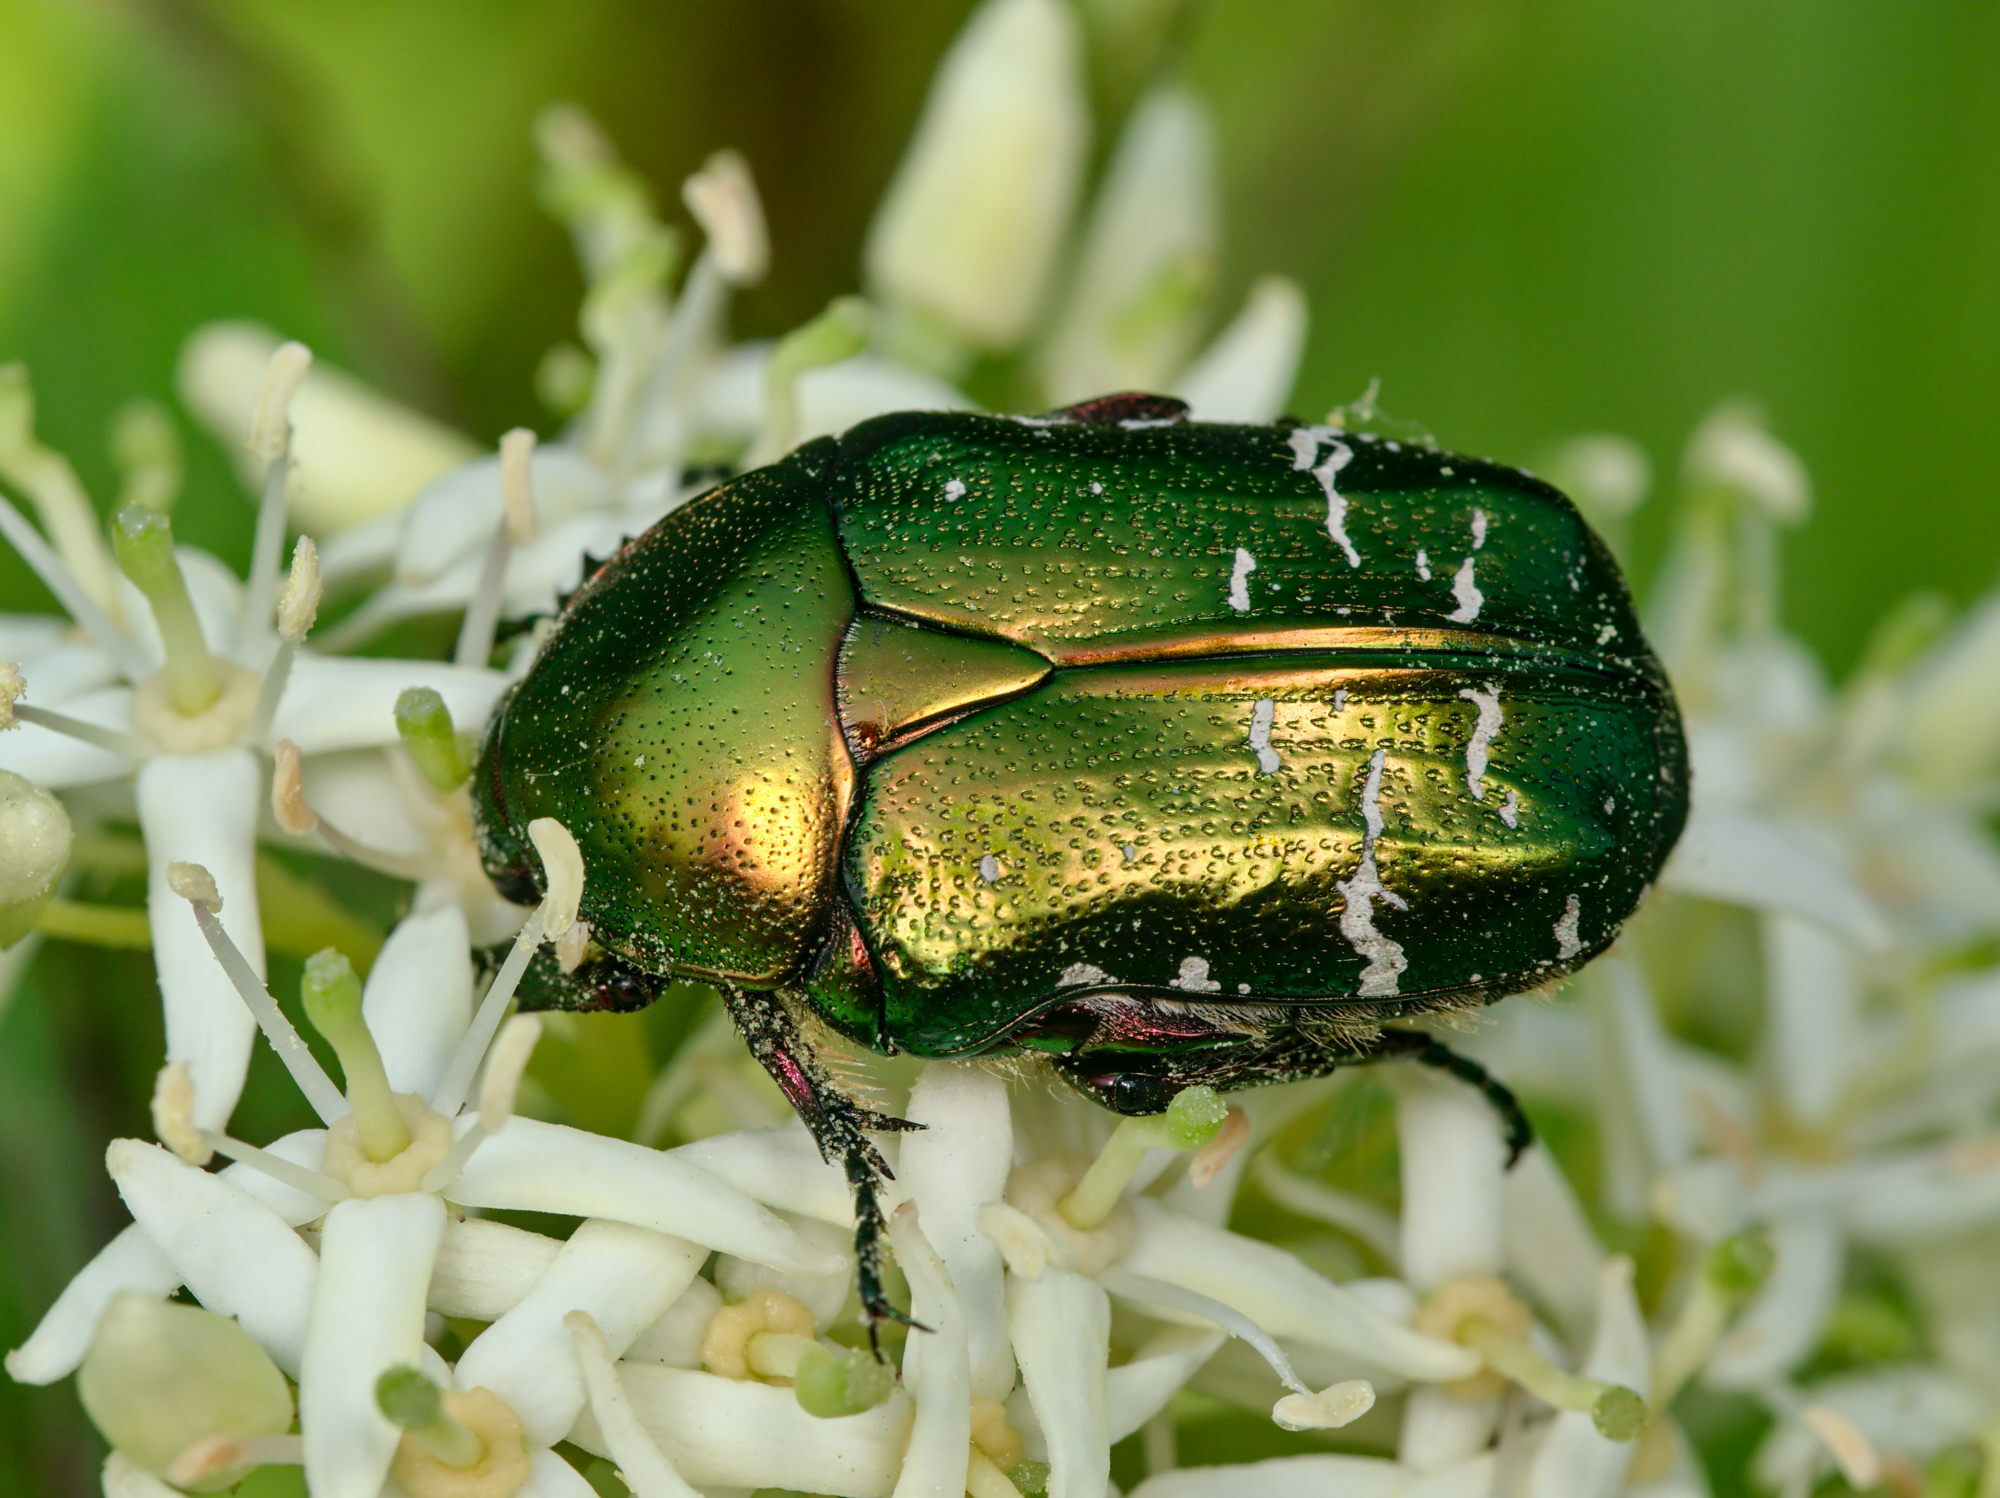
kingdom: Animalia
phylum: Arthropoda
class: Insecta
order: Coleoptera
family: Scarabaeidae
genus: Cetonia
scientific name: Cetonia aurata
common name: Rose chafer
